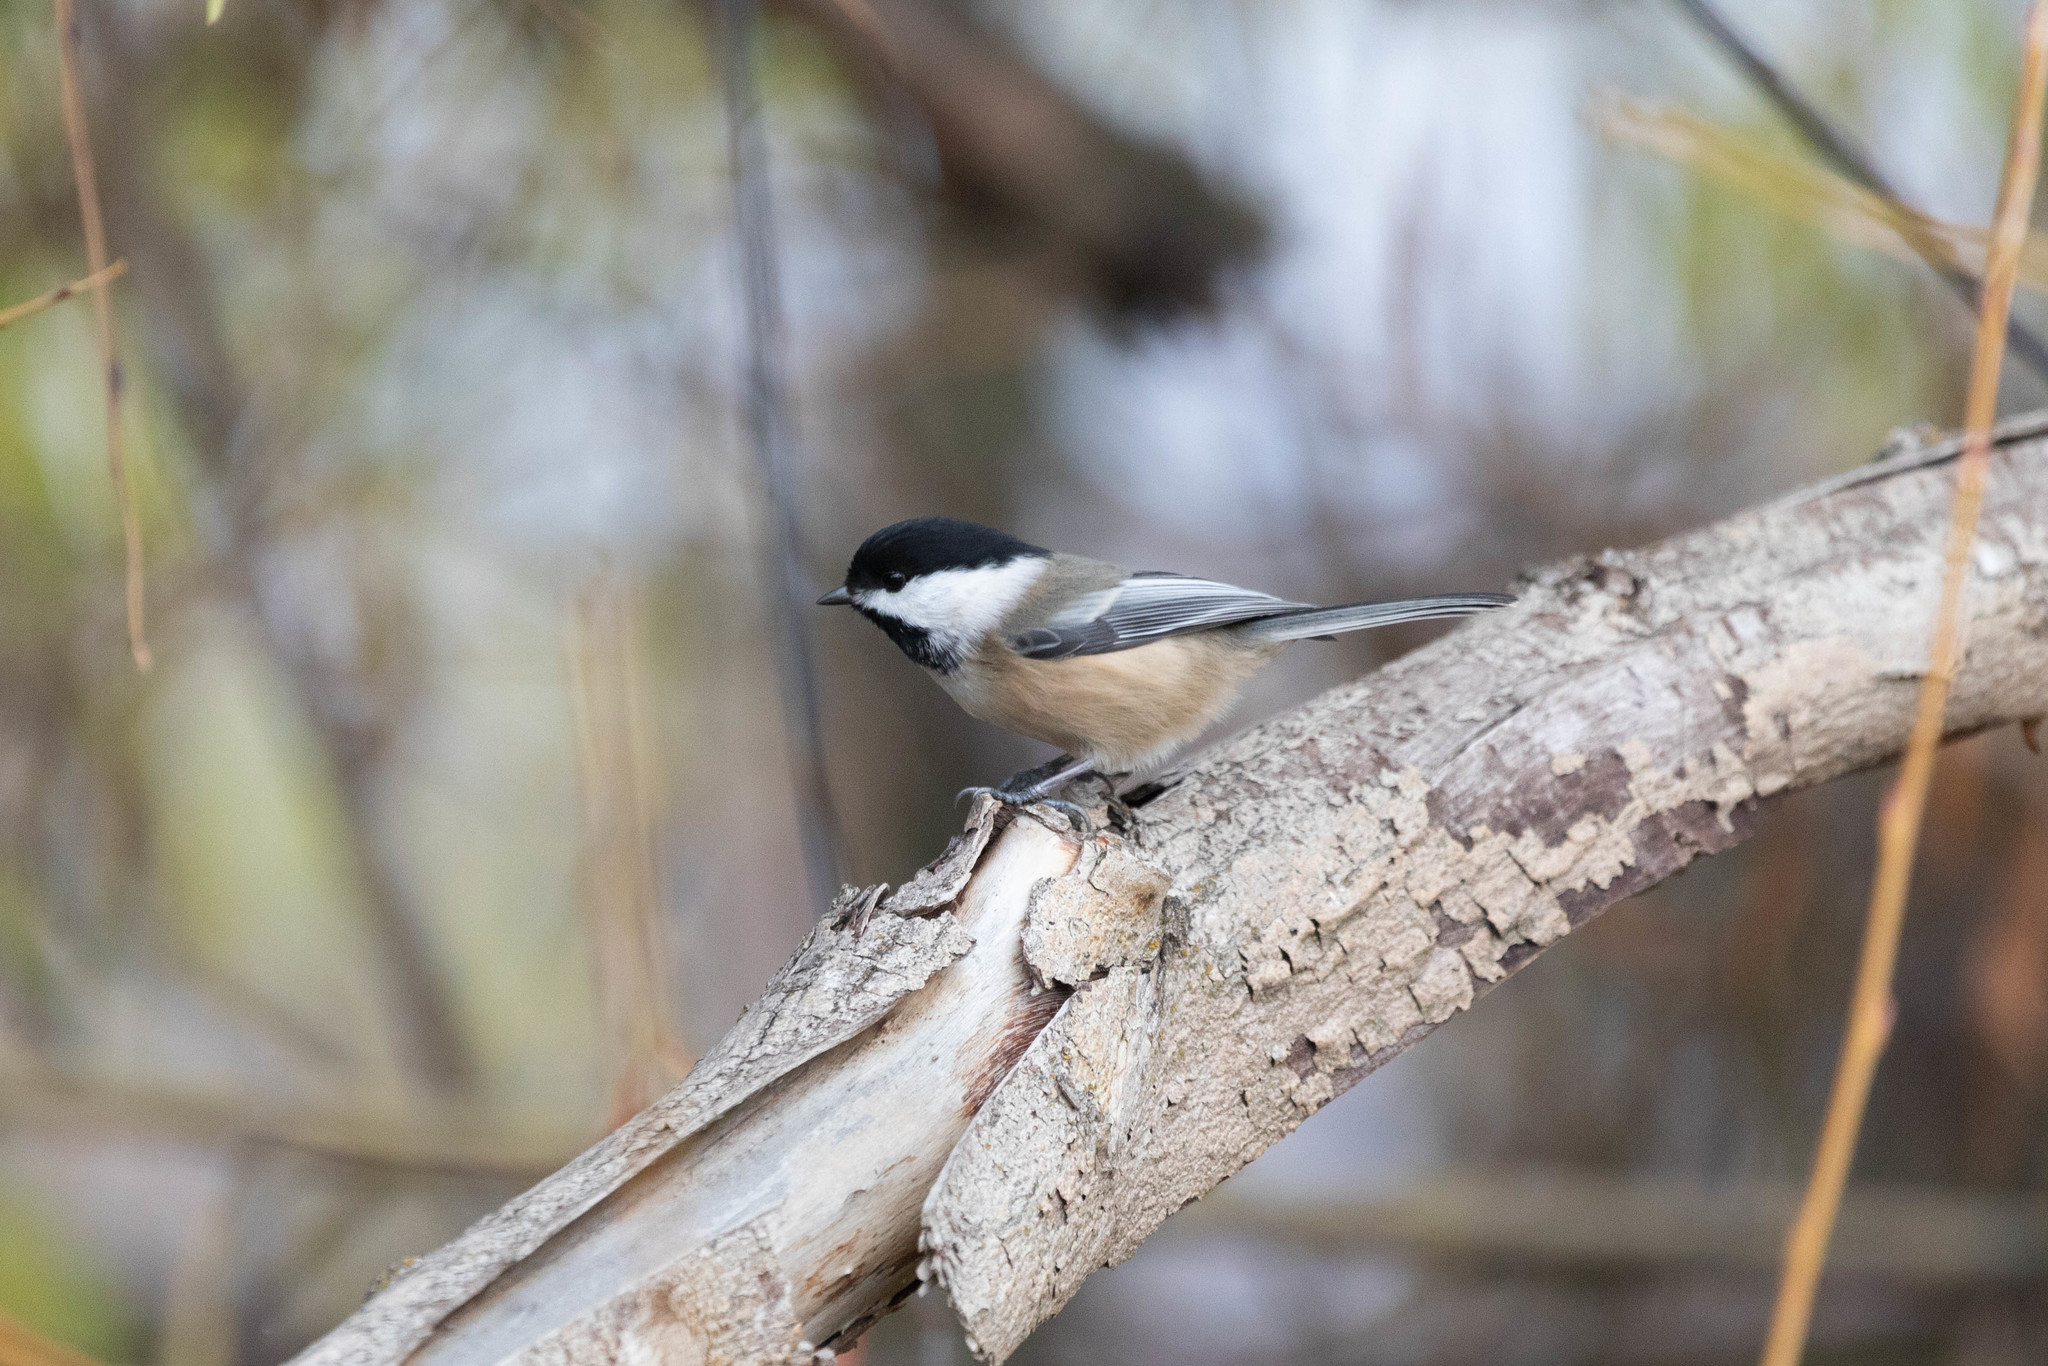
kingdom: Animalia
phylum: Chordata
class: Aves
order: Passeriformes
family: Paridae
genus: Poecile
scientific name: Poecile atricapillus
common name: Black-capped chickadee
